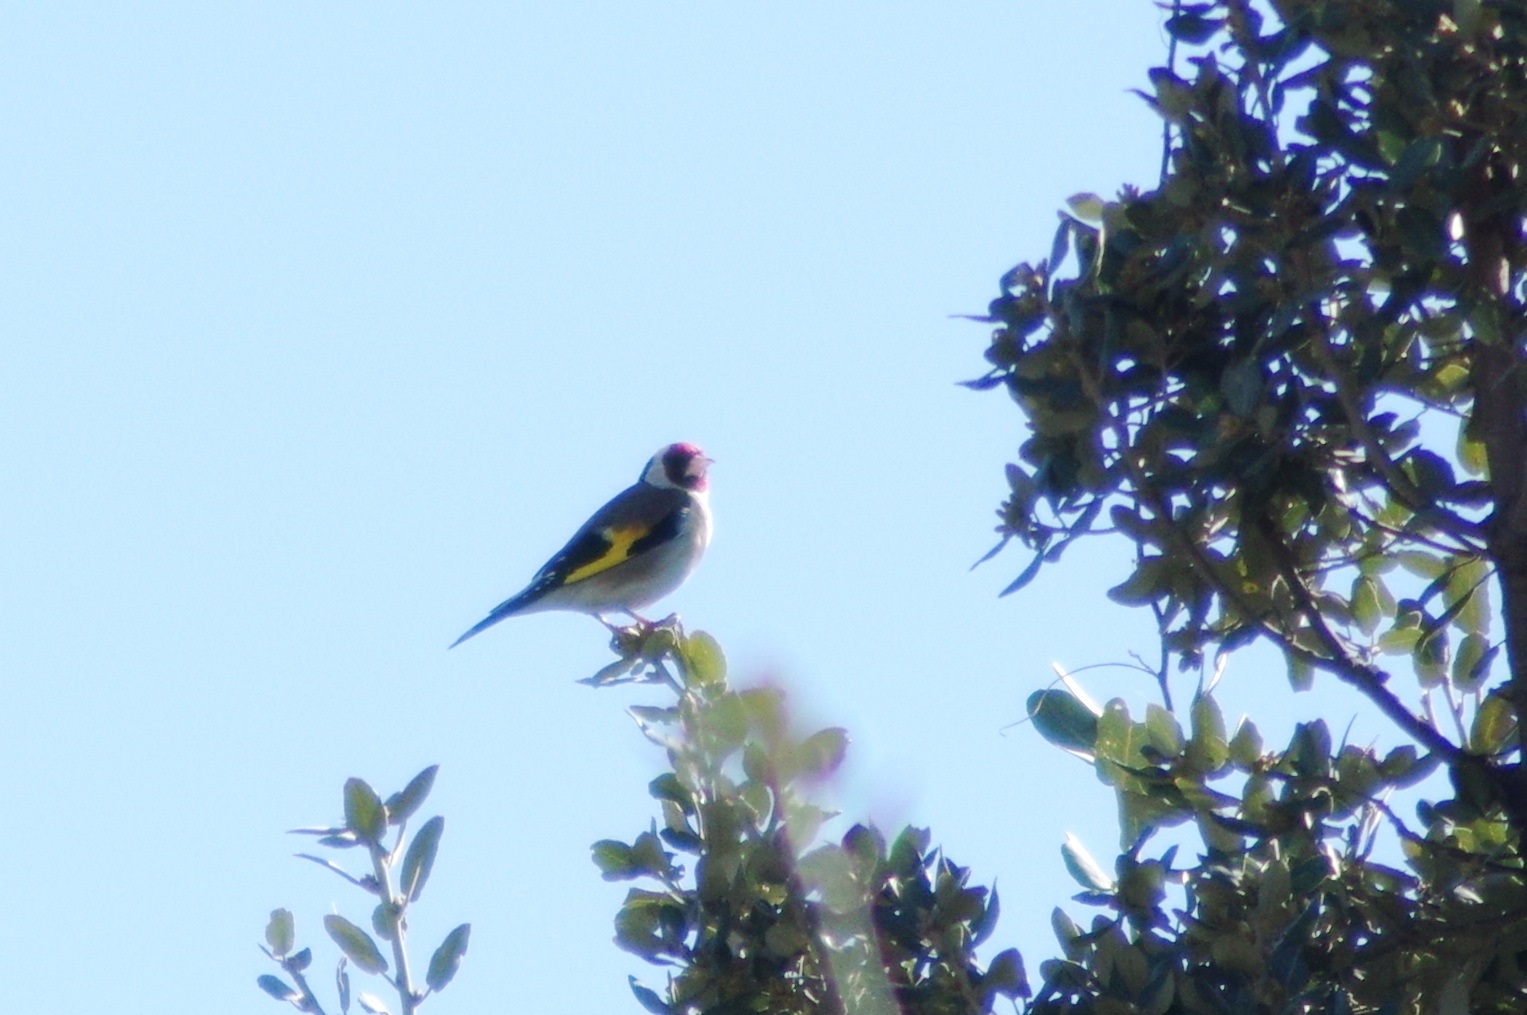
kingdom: Animalia
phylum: Chordata
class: Aves
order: Passeriformes
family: Fringillidae
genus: Carduelis
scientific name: Carduelis carduelis
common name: European goldfinch
